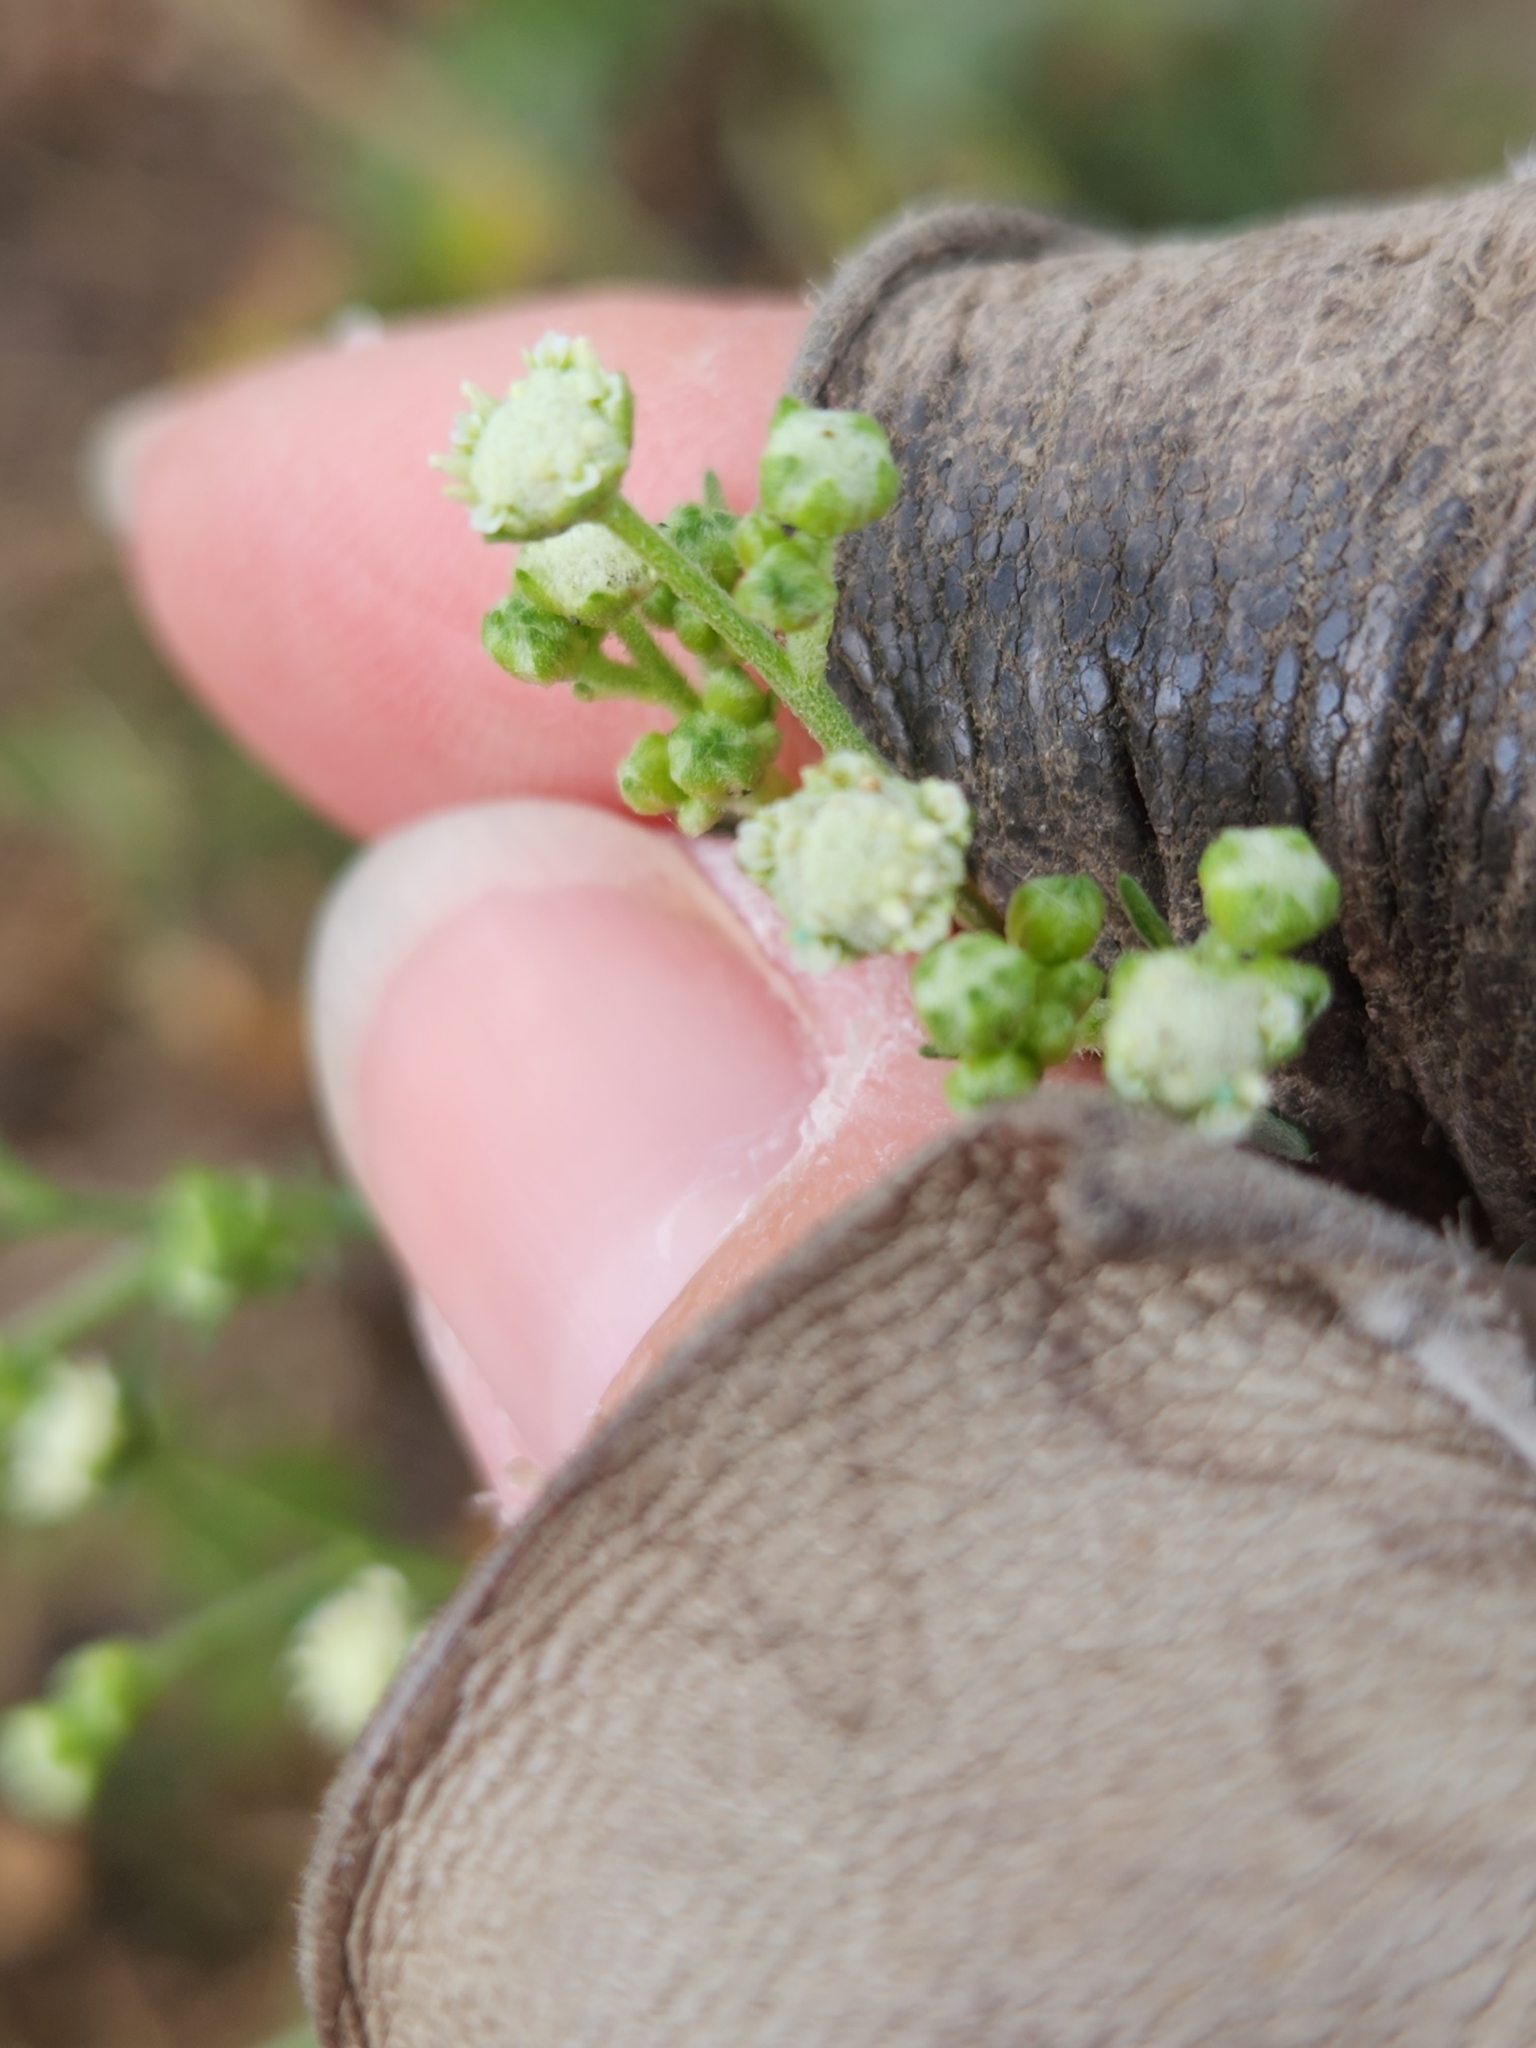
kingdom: Plantae
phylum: Tracheophyta
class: Magnoliopsida
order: Asterales
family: Asteraceae
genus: Parthenium
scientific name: Parthenium hysterophorus
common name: Santa maria feverfew
